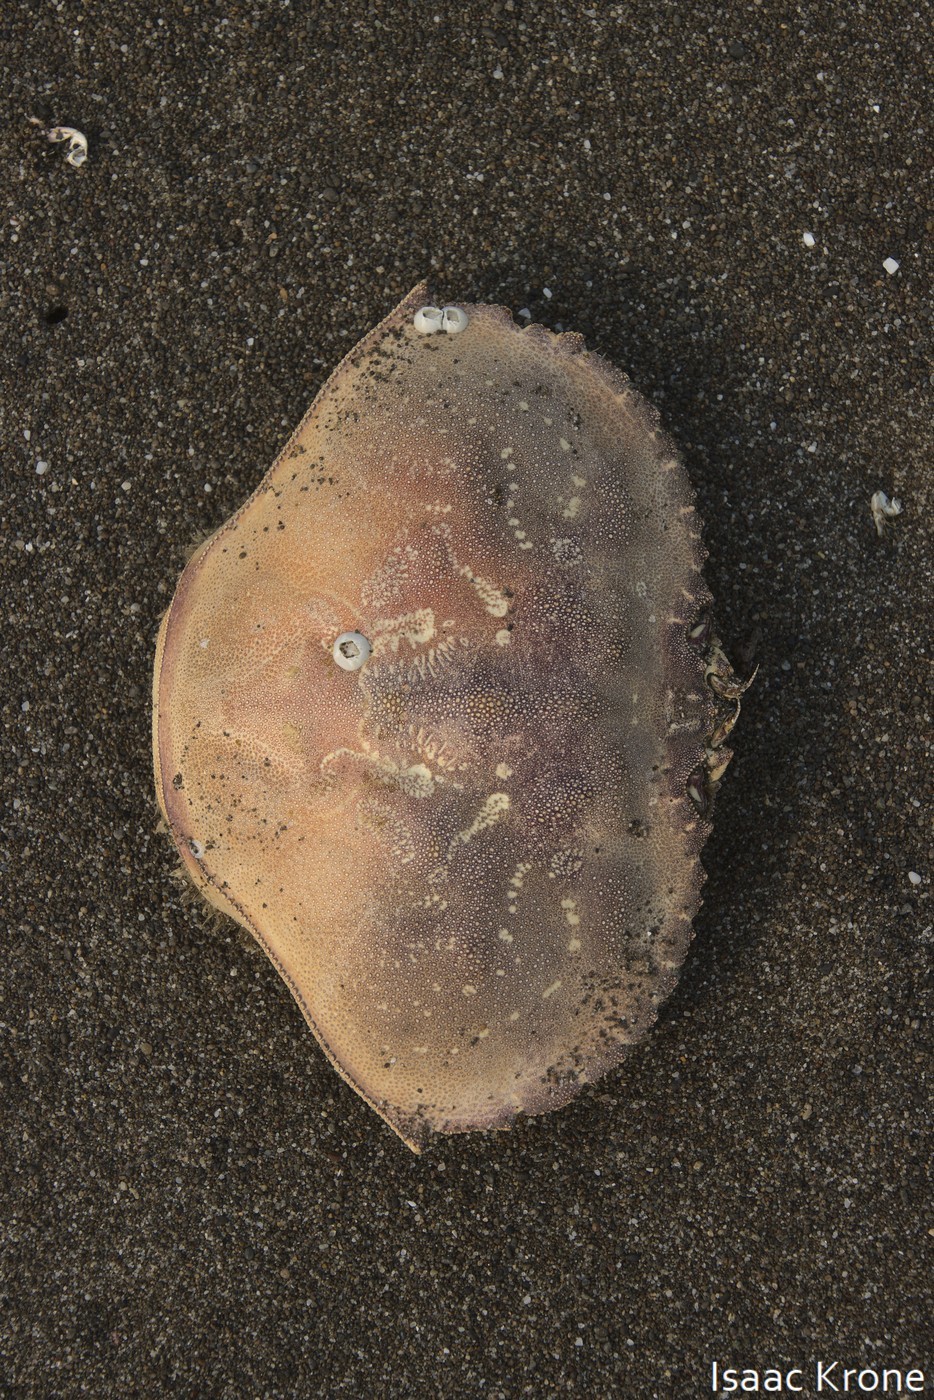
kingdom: Animalia
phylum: Arthropoda
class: Malacostraca
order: Decapoda
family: Cancridae
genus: Metacarcinus
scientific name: Metacarcinus magister
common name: Californian crab
